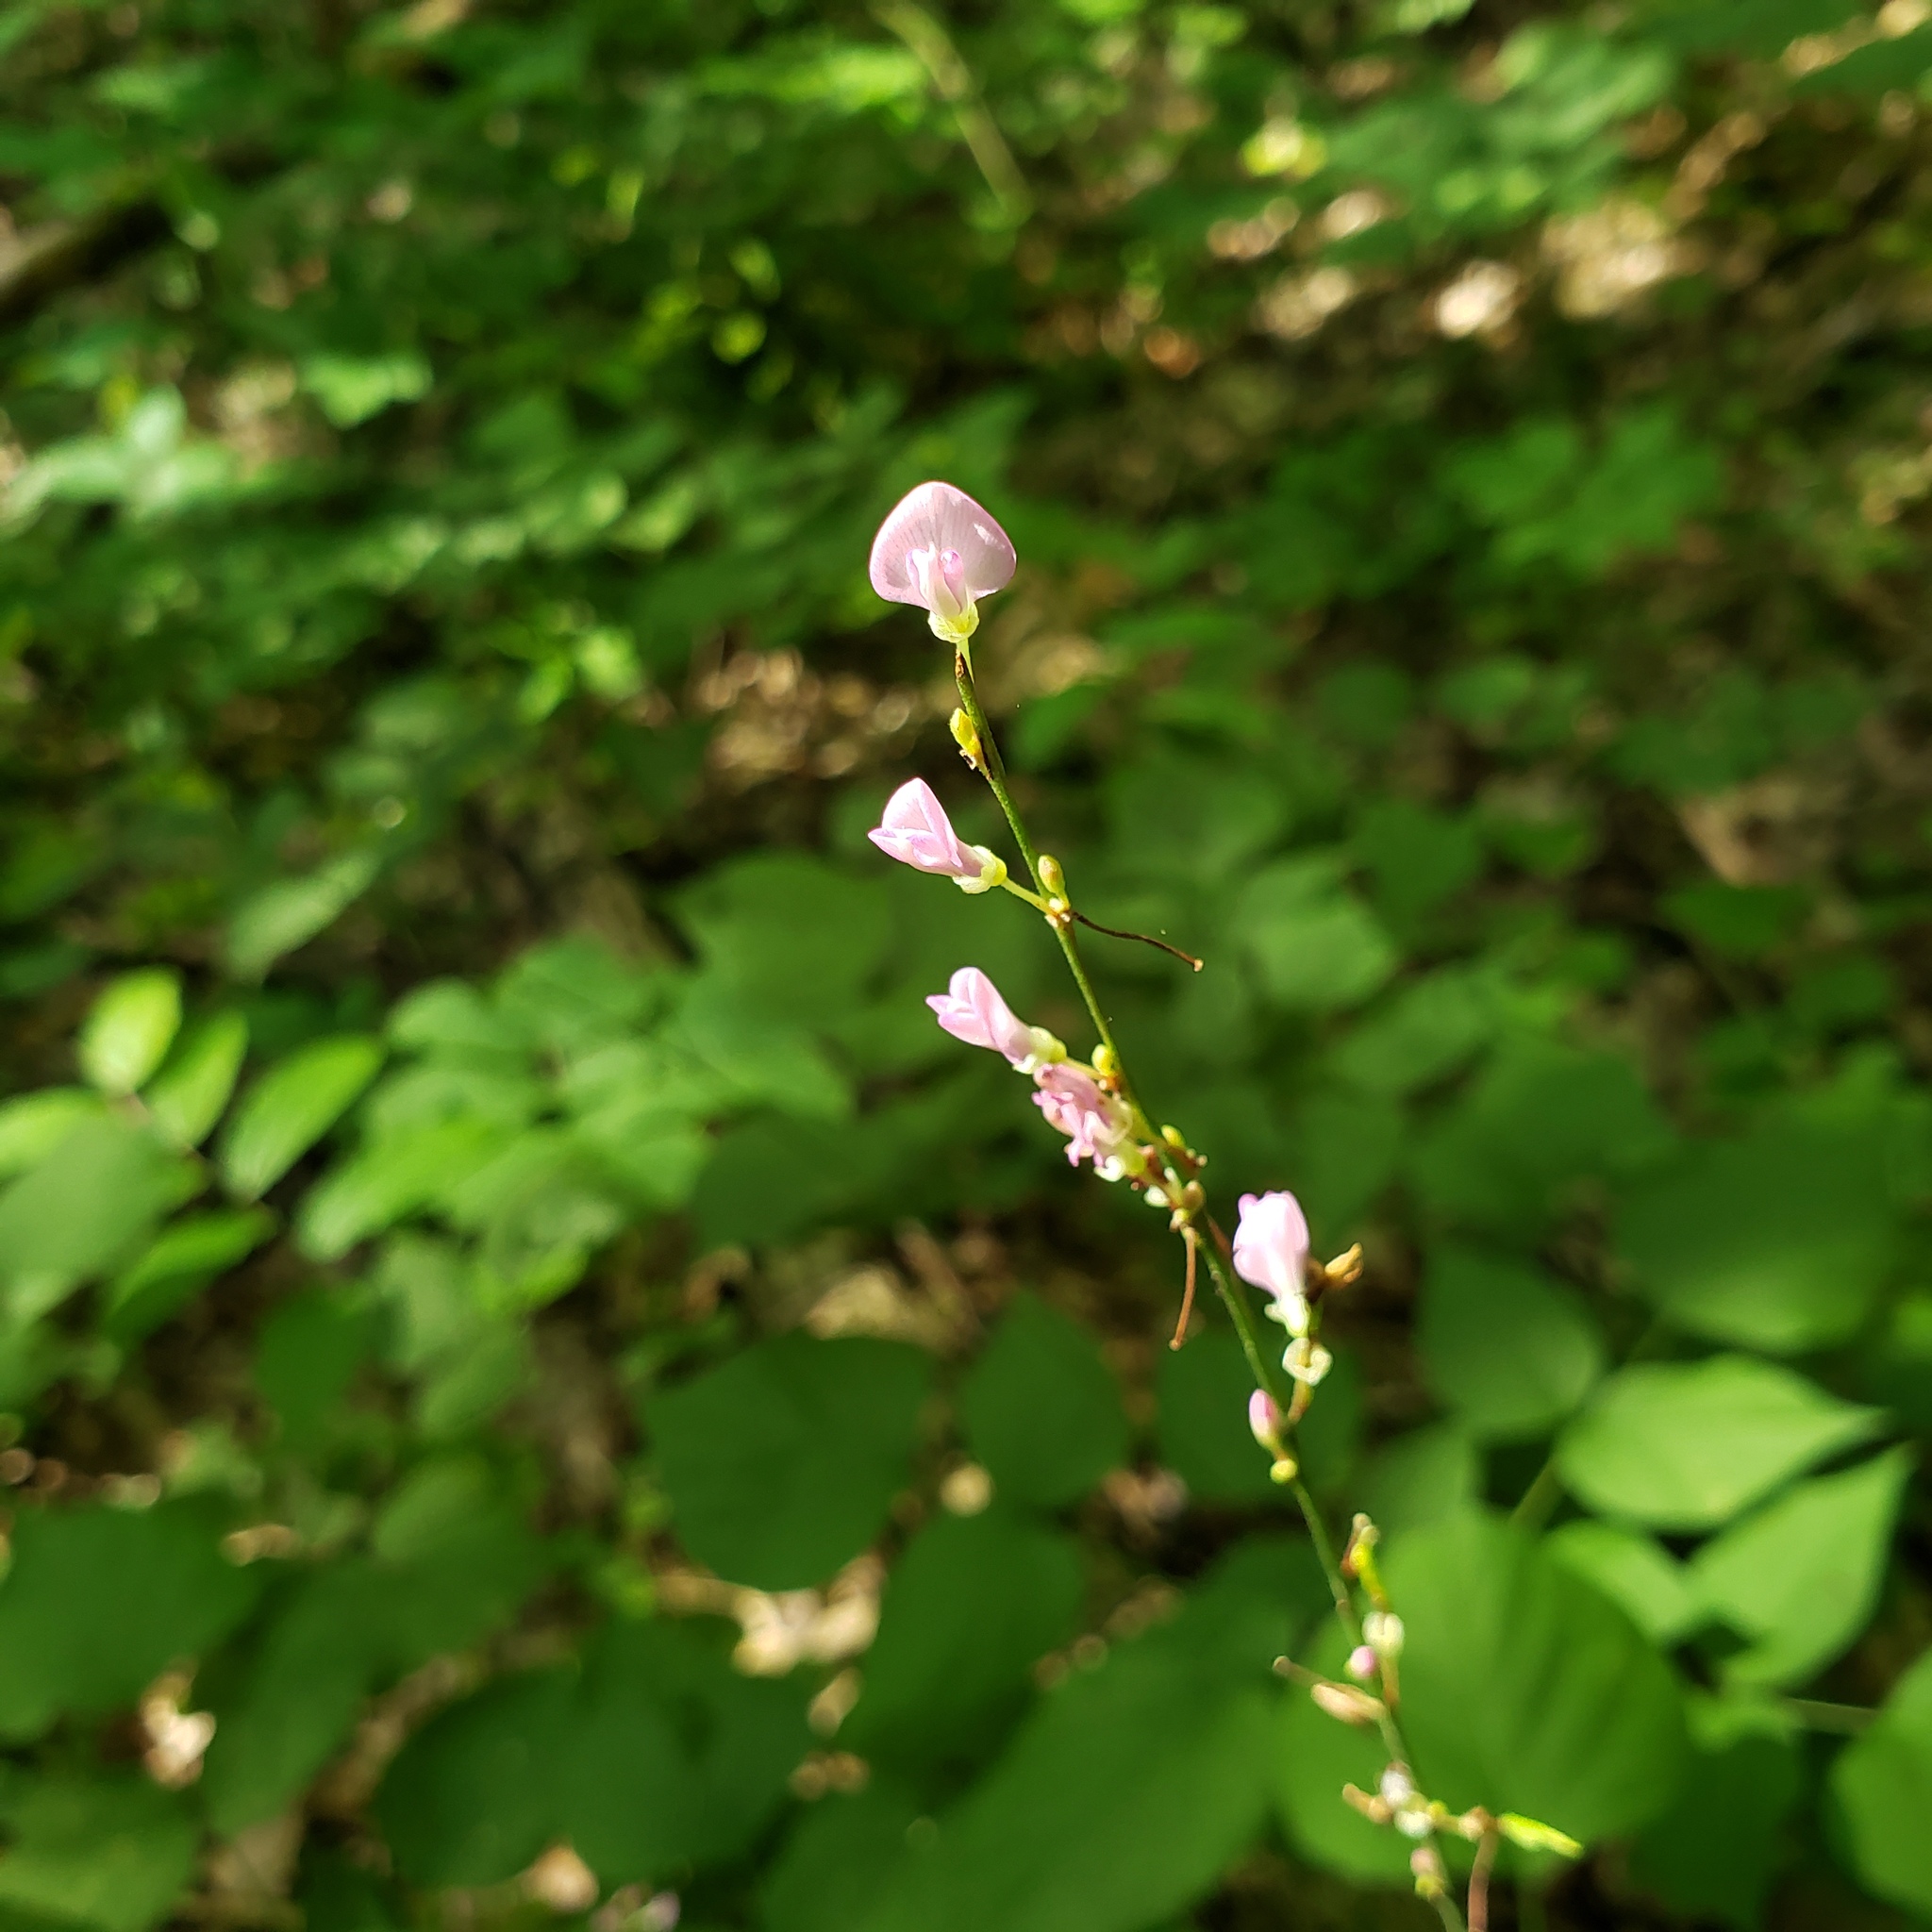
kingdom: Plantae
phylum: Tracheophyta
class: Magnoliopsida
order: Fabales
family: Fabaceae
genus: Hylodesmum
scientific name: Hylodesmum glutinosum
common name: Clustered-leaved tick-trefoil
